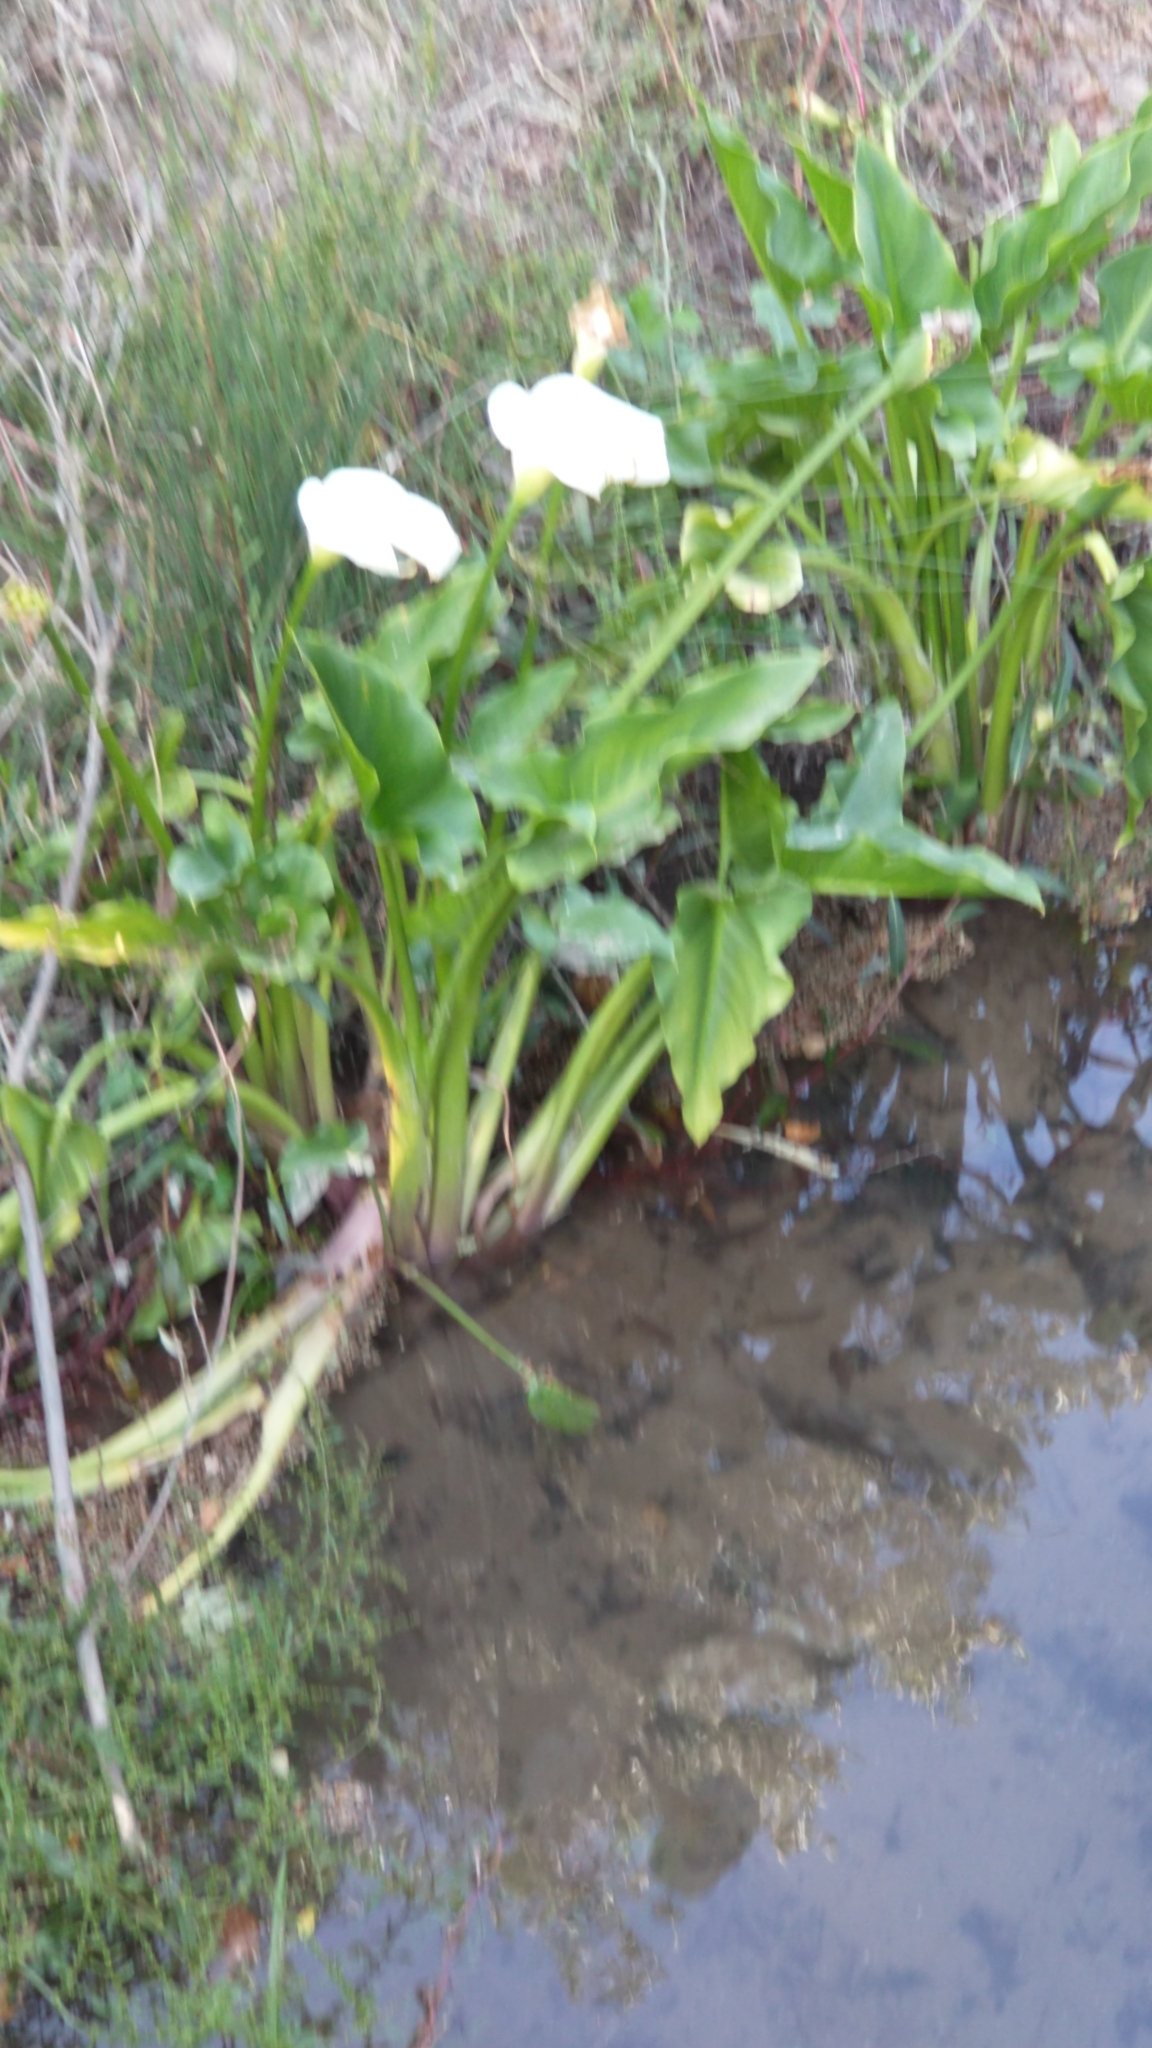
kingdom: Plantae
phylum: Tracheophyta
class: Liliopsida
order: Alismatales
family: Araceae
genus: Zantedeschia
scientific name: Zantedeschia aethiopica
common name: Altar-lily
